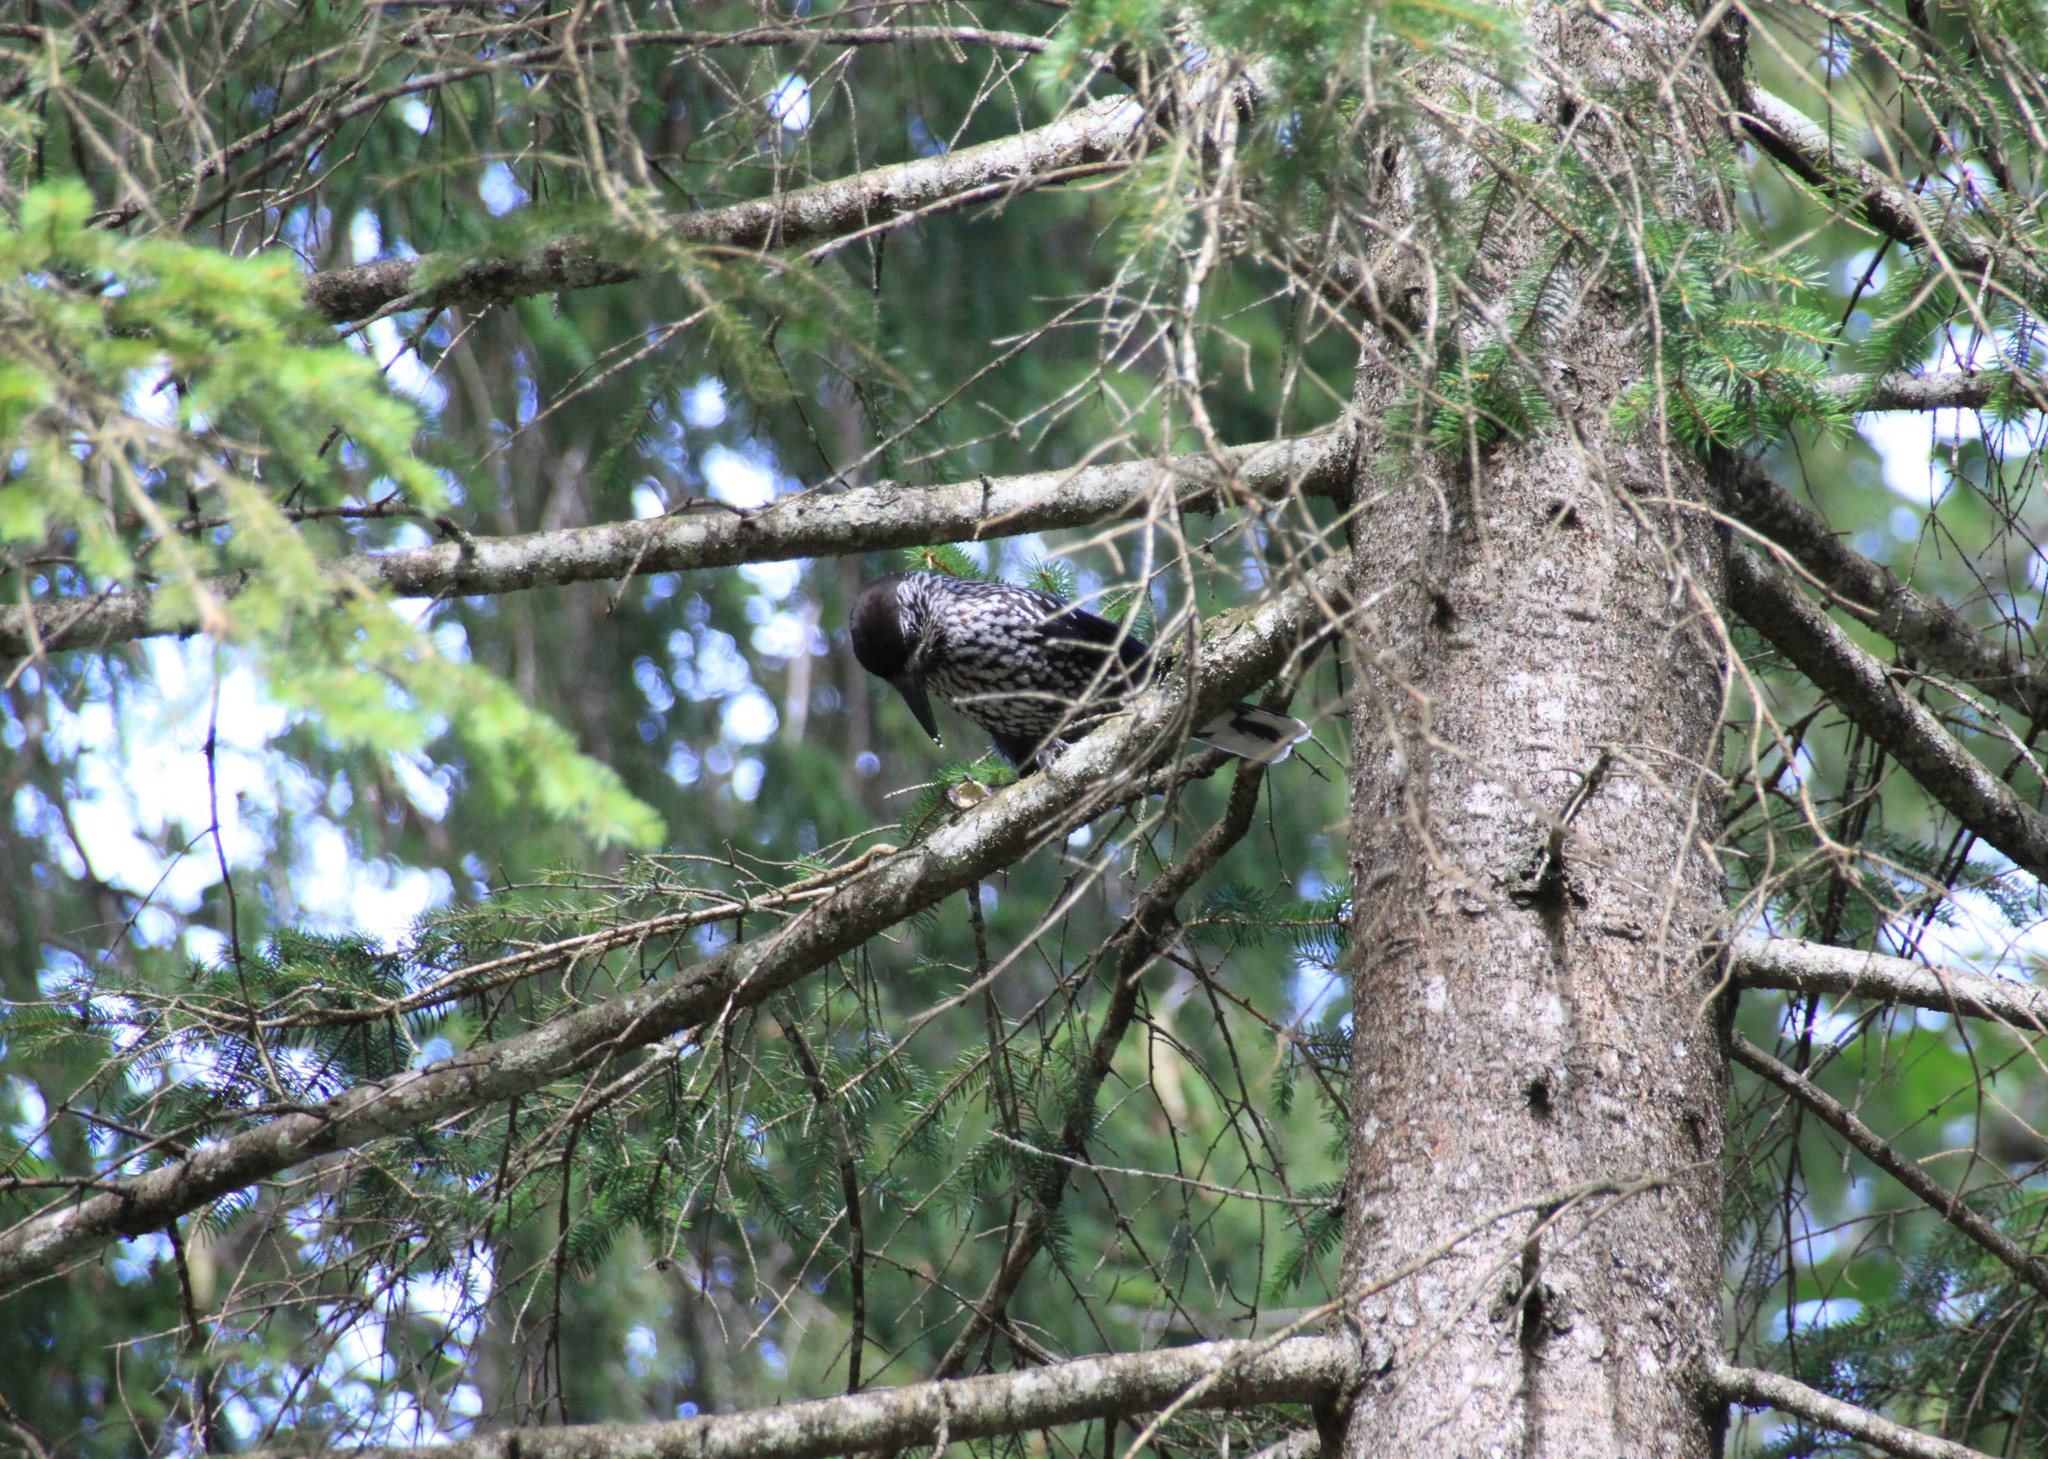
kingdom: Animalia
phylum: Chordata
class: Aves
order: Passeriformes
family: Corvidae
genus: Nucifraga
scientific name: Nucifraga caryocatactes
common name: Spotted nutcracker
